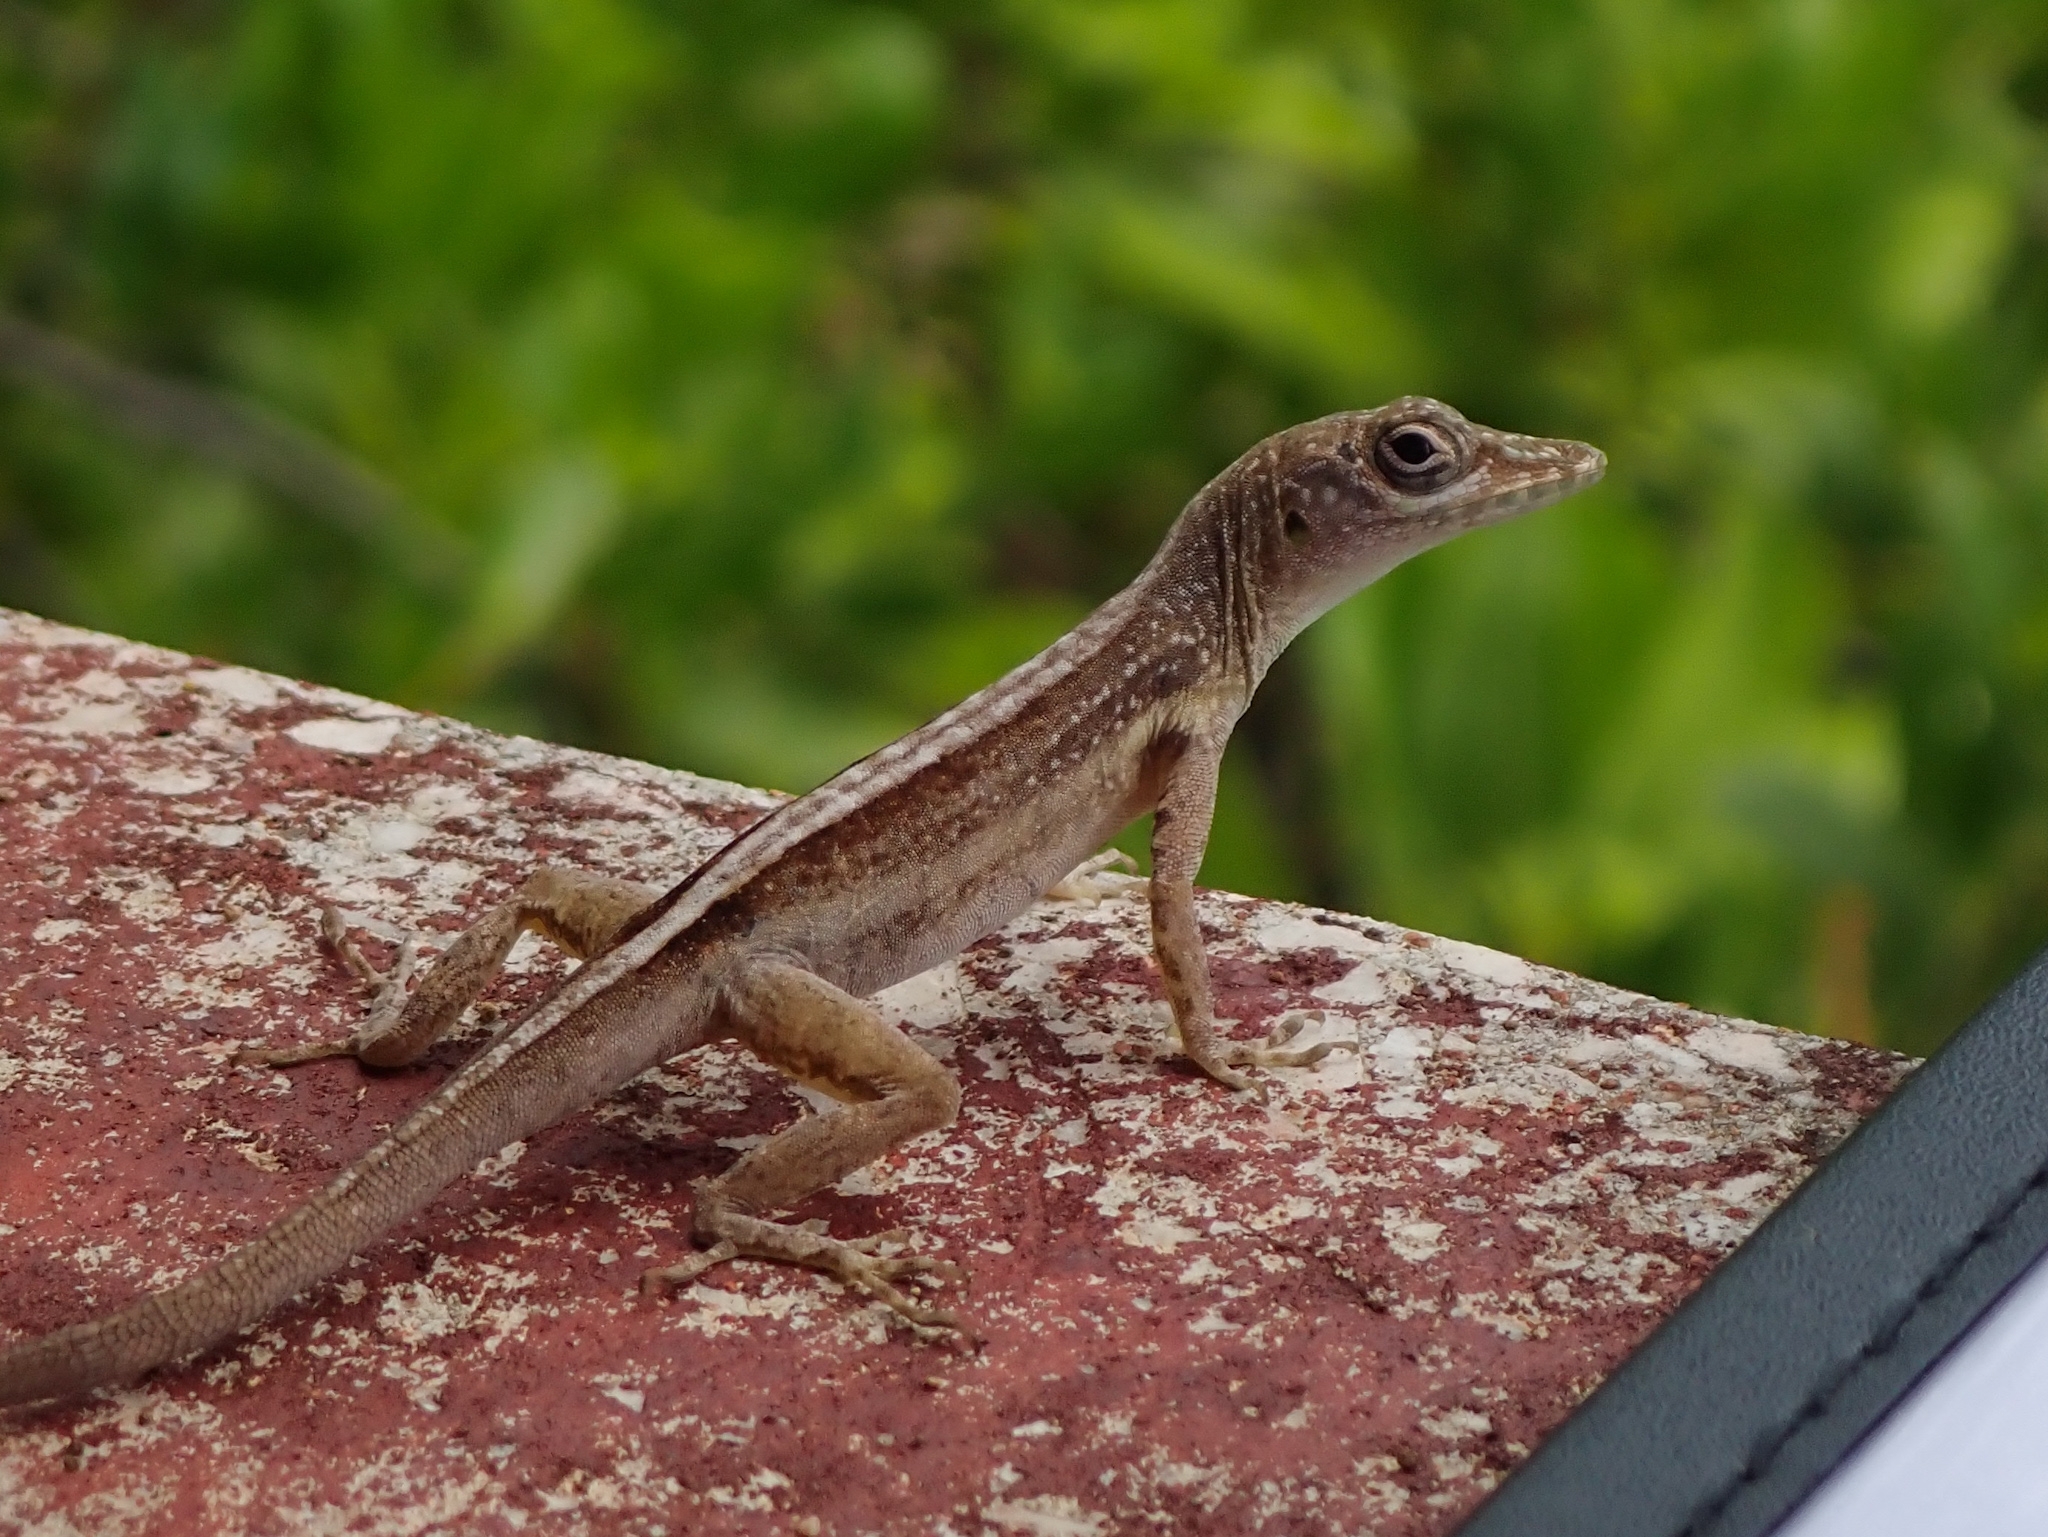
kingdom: Animalia
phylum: Chordata
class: Squamata
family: Dactyloidae
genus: Anolis
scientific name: Anolis conspersus
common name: Grand cayman anole
